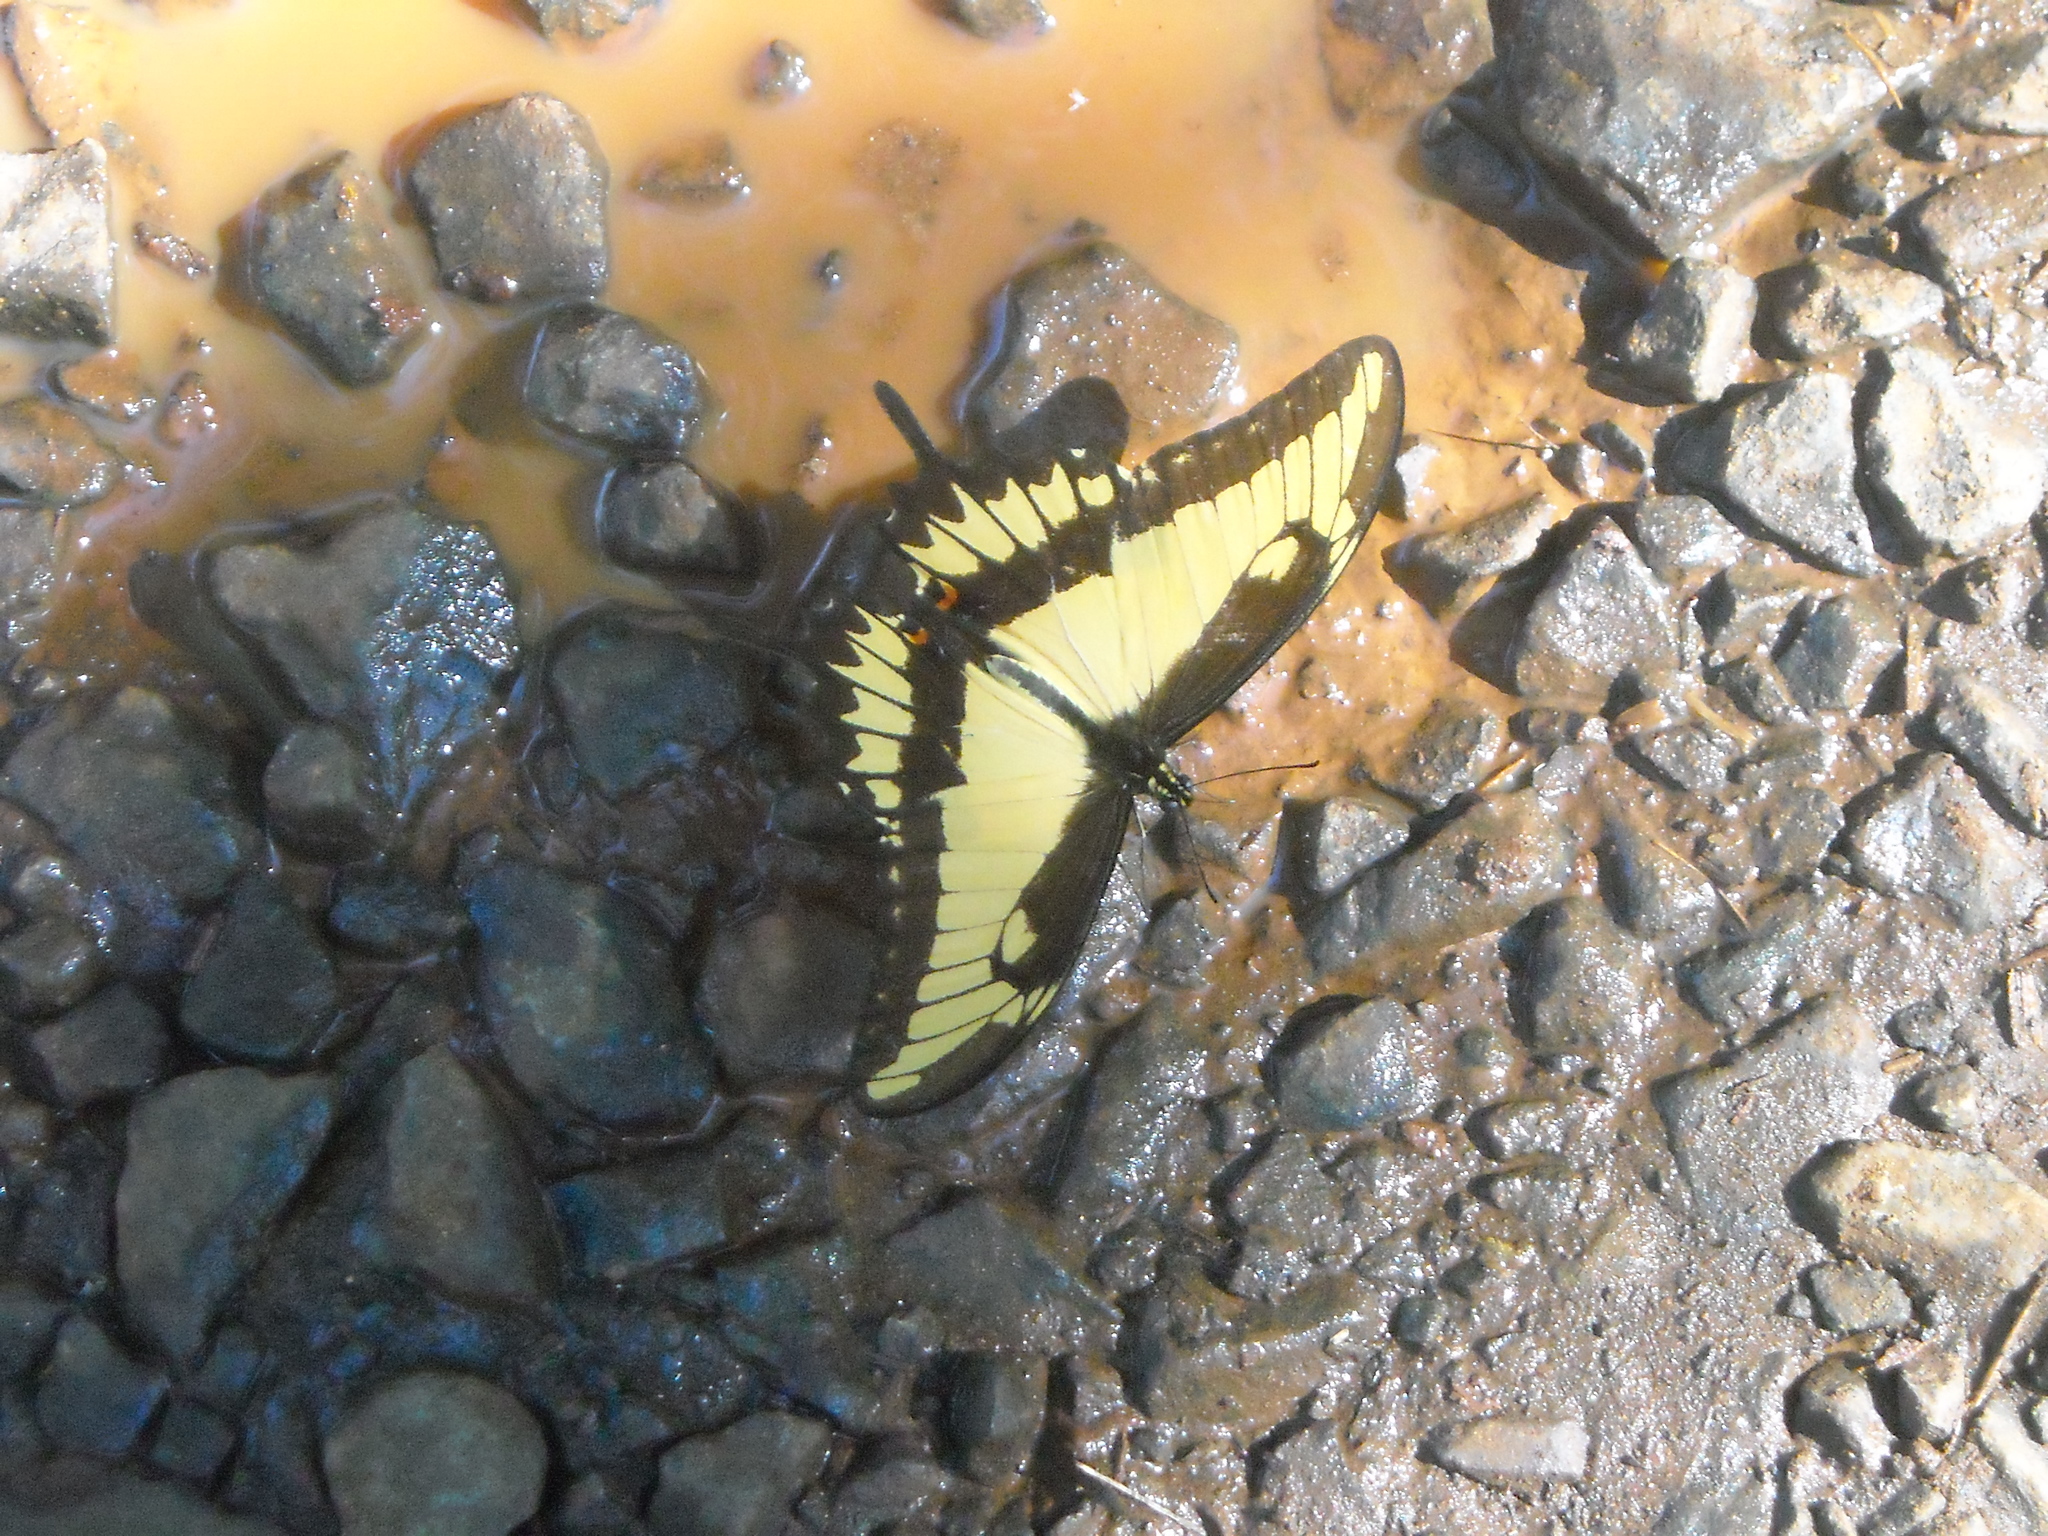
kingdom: Animalia
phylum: Arthropoda
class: Insecta
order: Lepidoptera
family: Papilionidae
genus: Papilio
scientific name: Papilio astyalus
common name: Astyalus swallowtail
